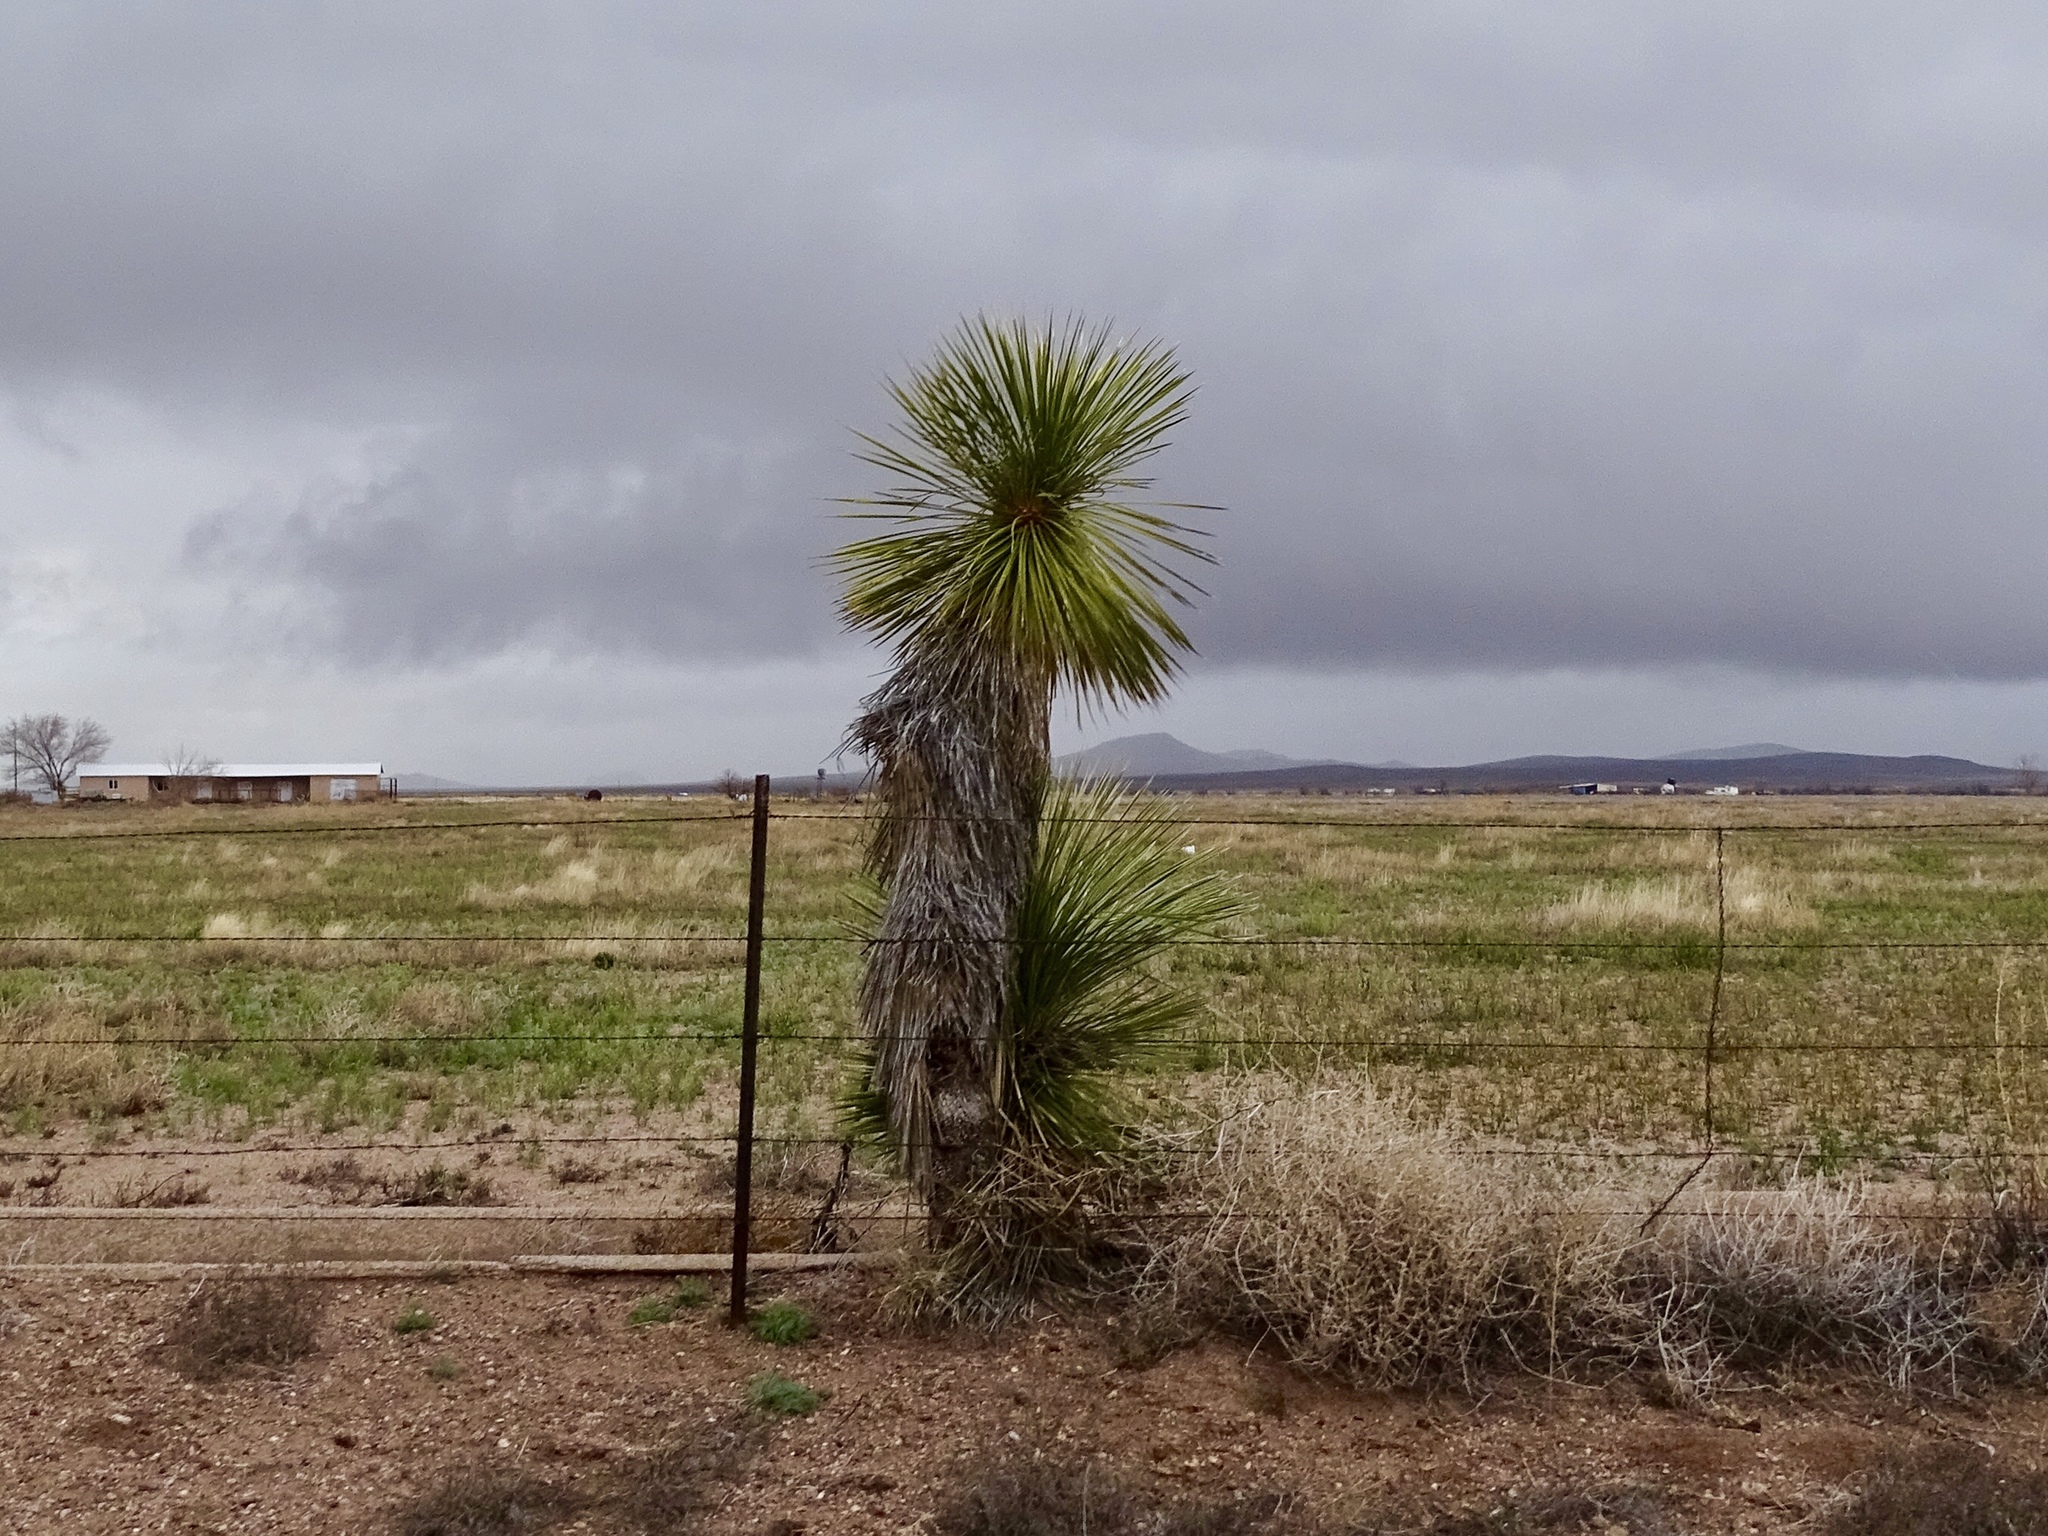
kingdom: Plantae
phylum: Tracheophyta
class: Liliopsida
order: Asparagales
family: Asparagaceae
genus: Yucca
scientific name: Yucca elata
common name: Palmella
